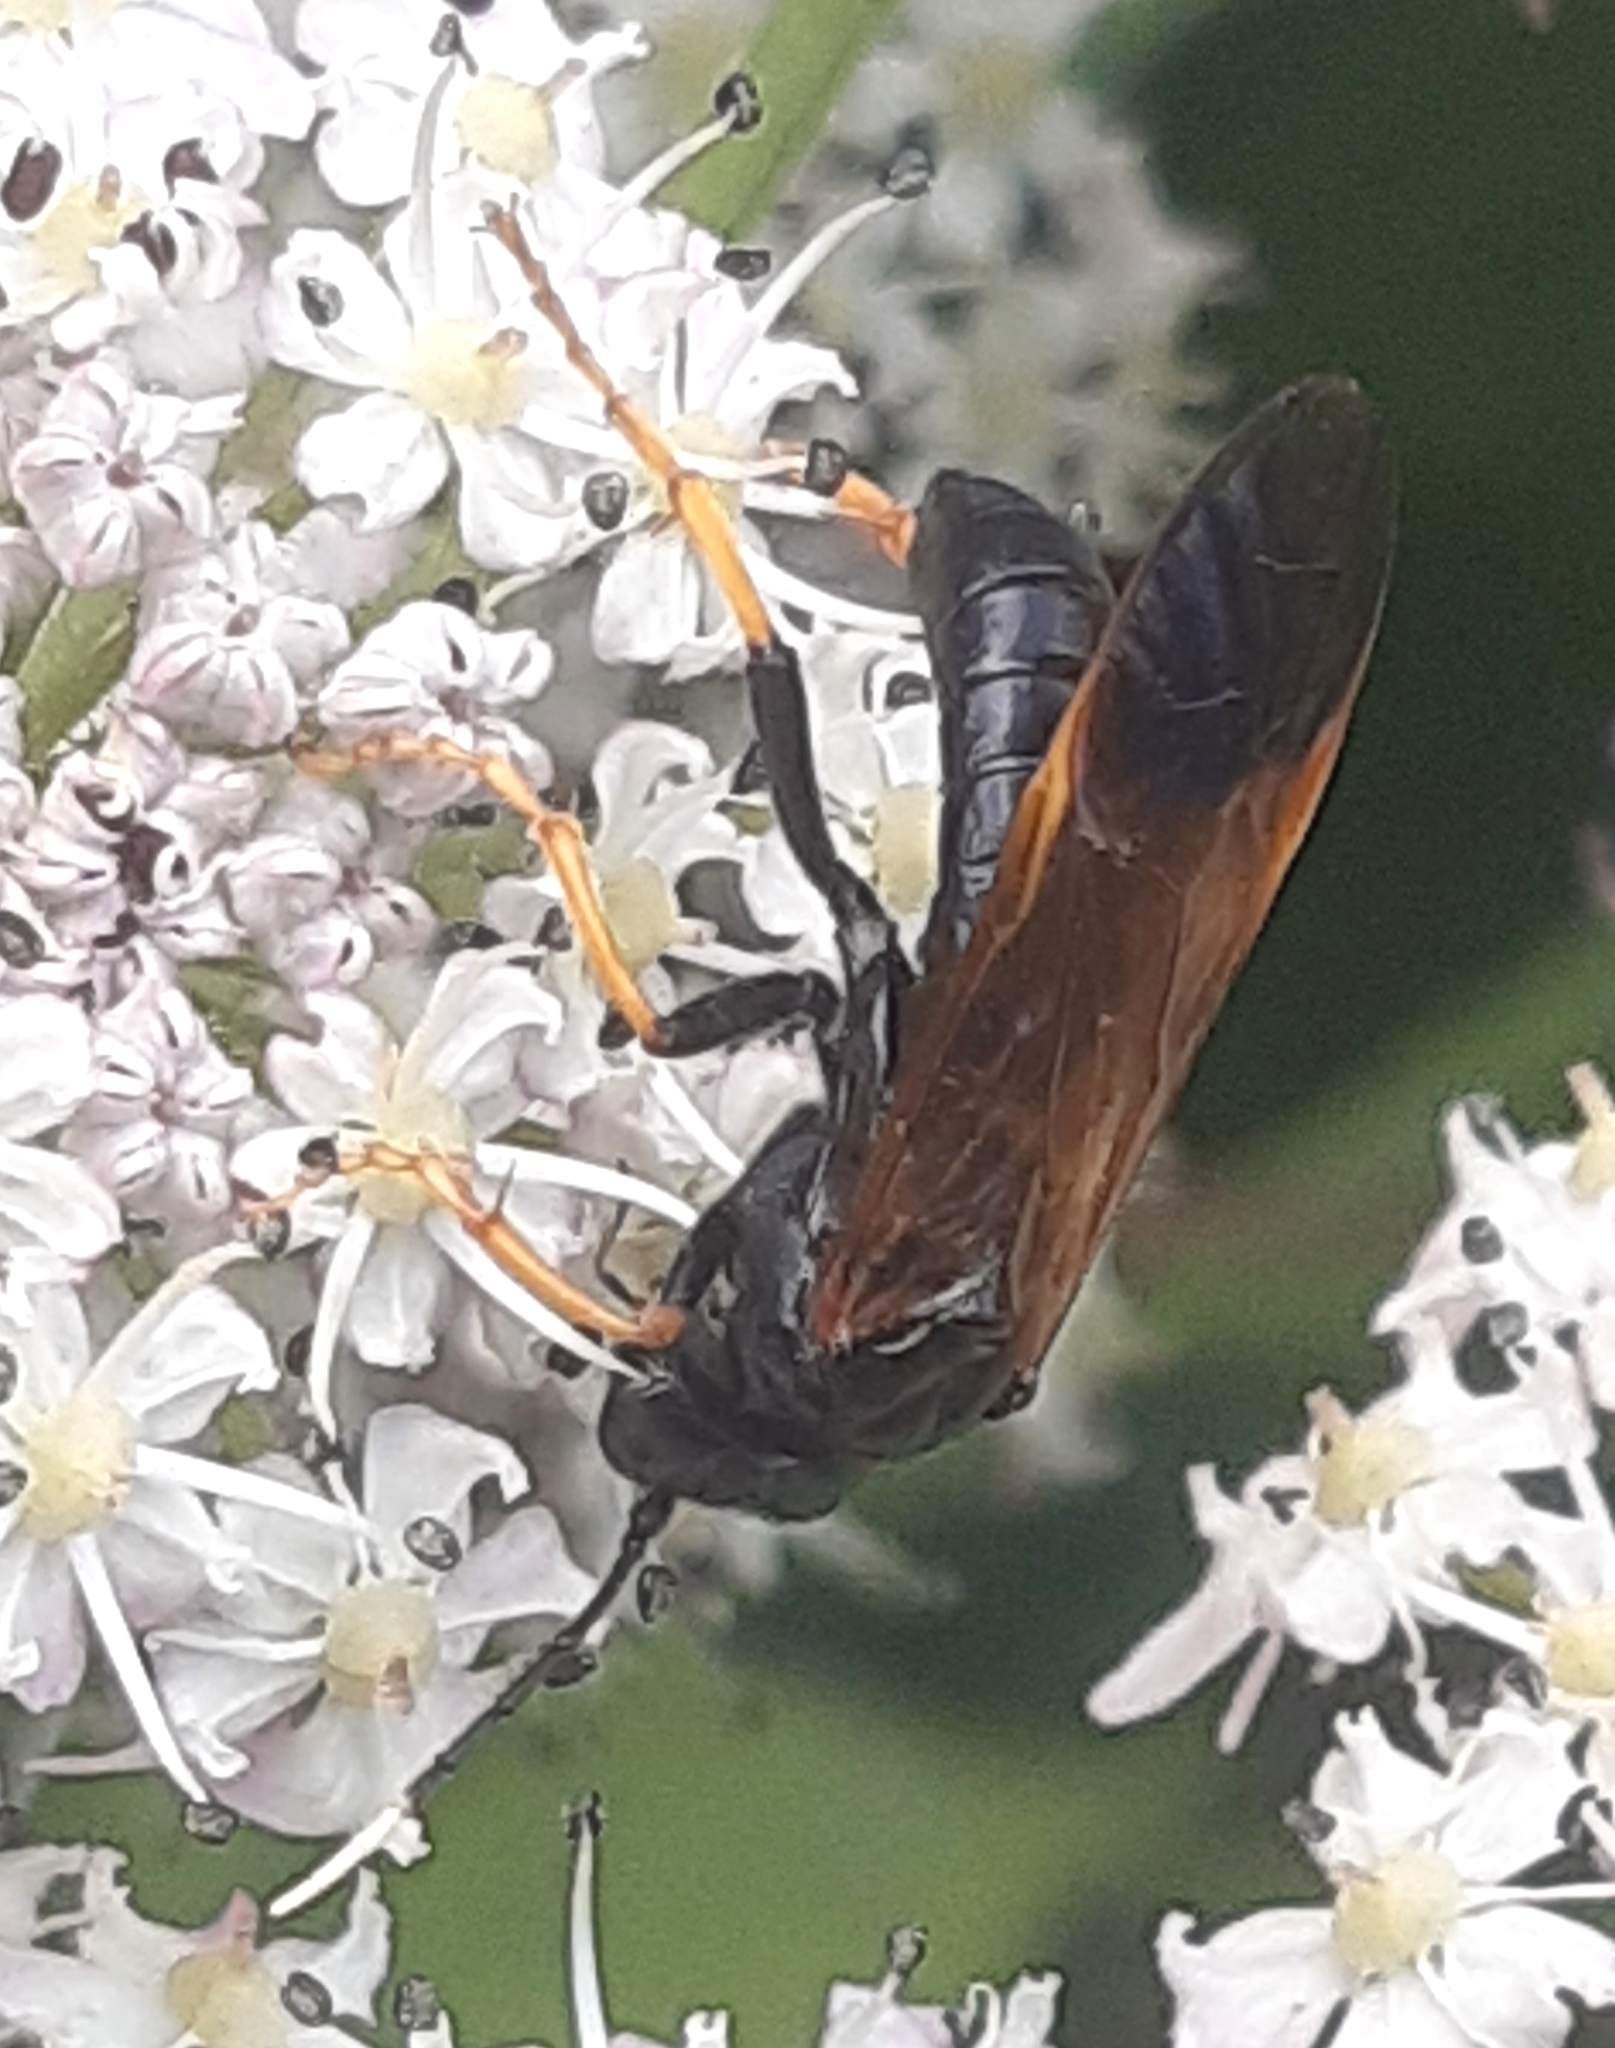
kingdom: Animalia
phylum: Arthropoda
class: Insecta
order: Hymenoptera
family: Tenthredinidae
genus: Tenthredo
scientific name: Tenthredo crassa
